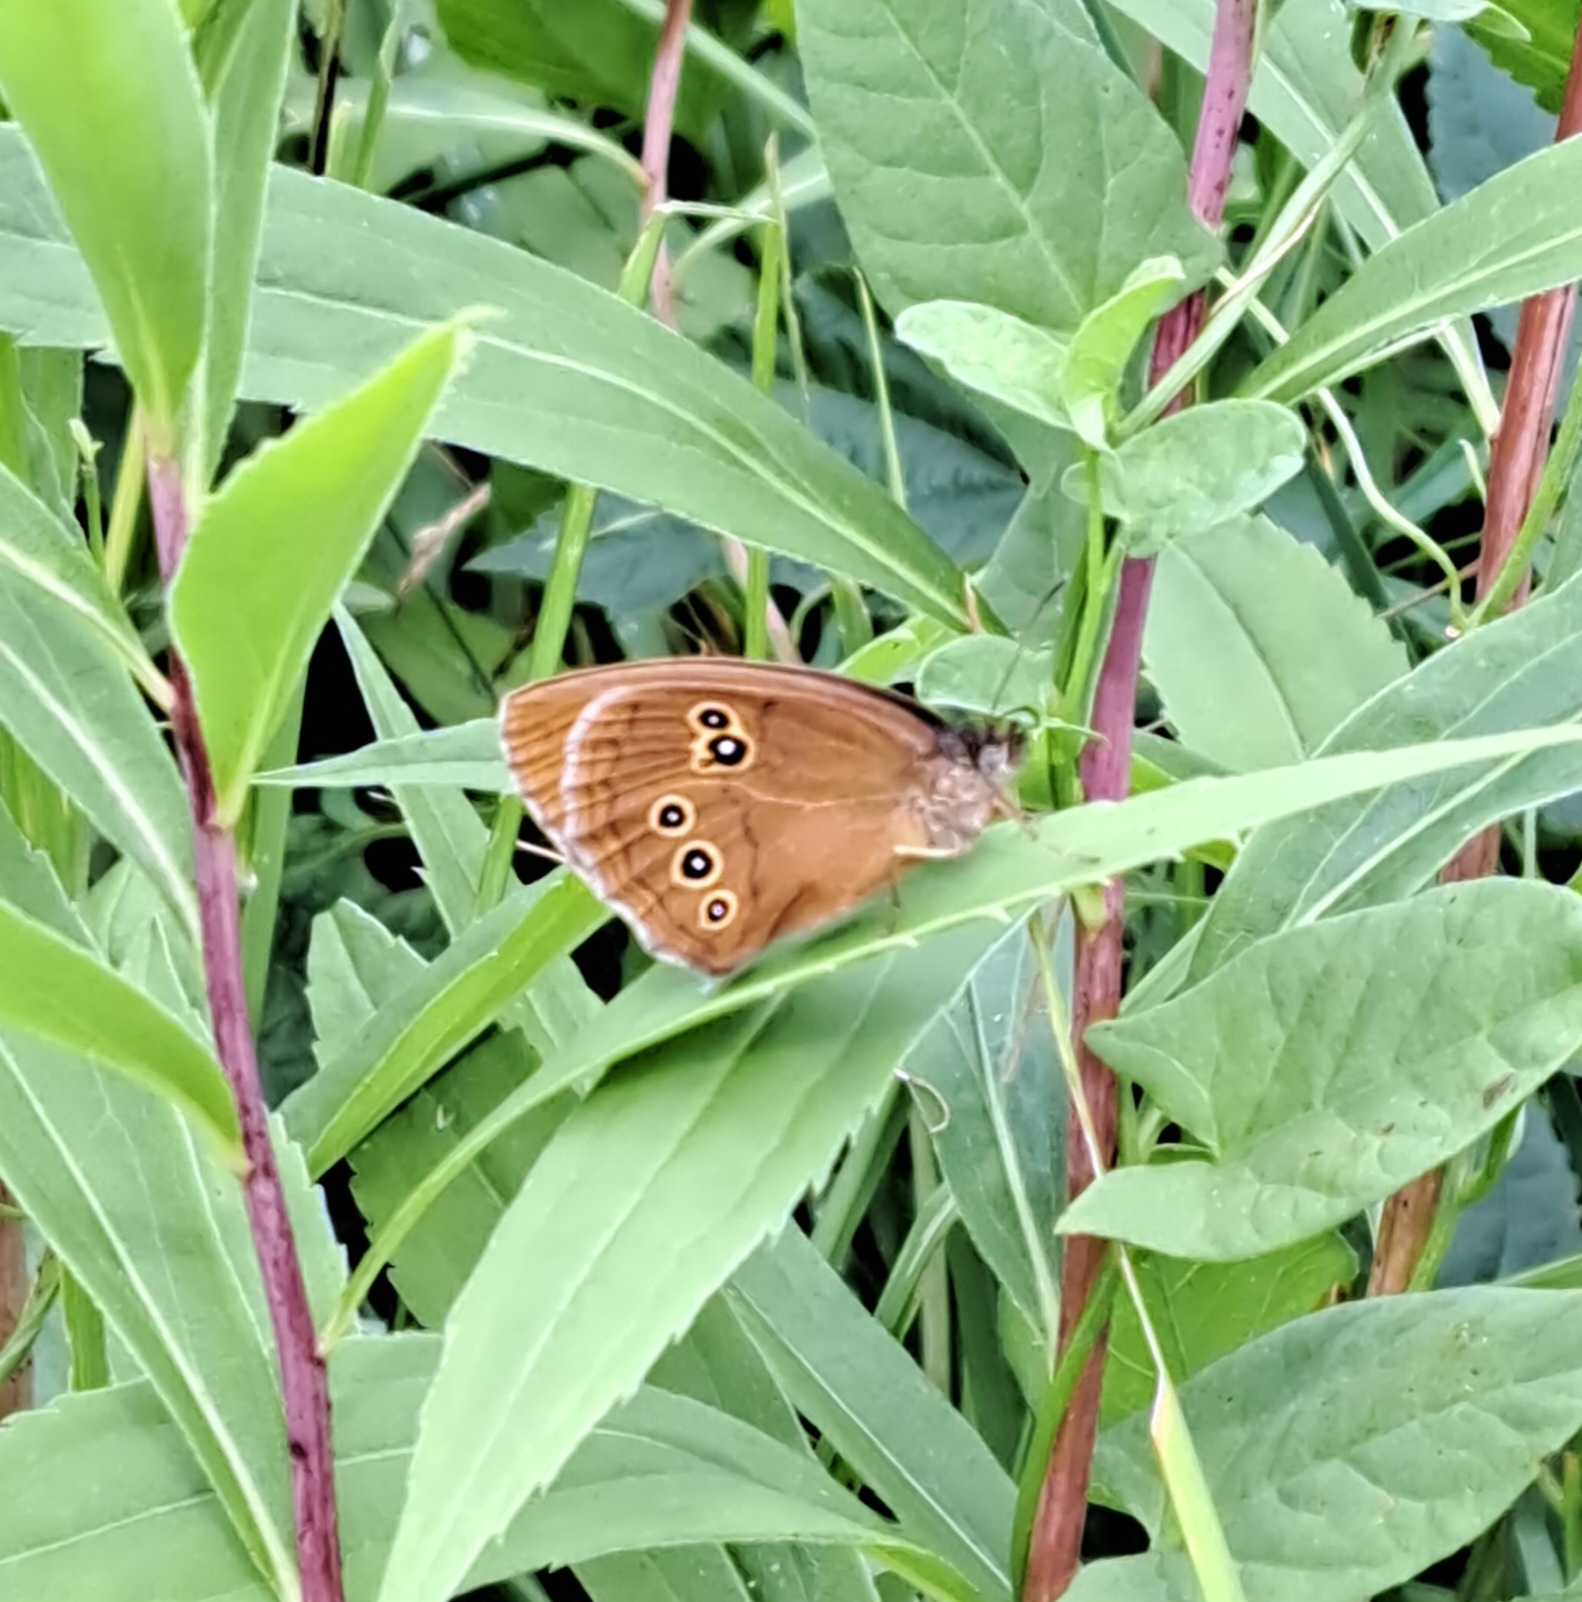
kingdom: Animalia
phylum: Arthropoda
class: Insecta
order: Lepidoptera
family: Nymphalidae
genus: Aphantopus
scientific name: Aphantopus hyperantus
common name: Ringlet
